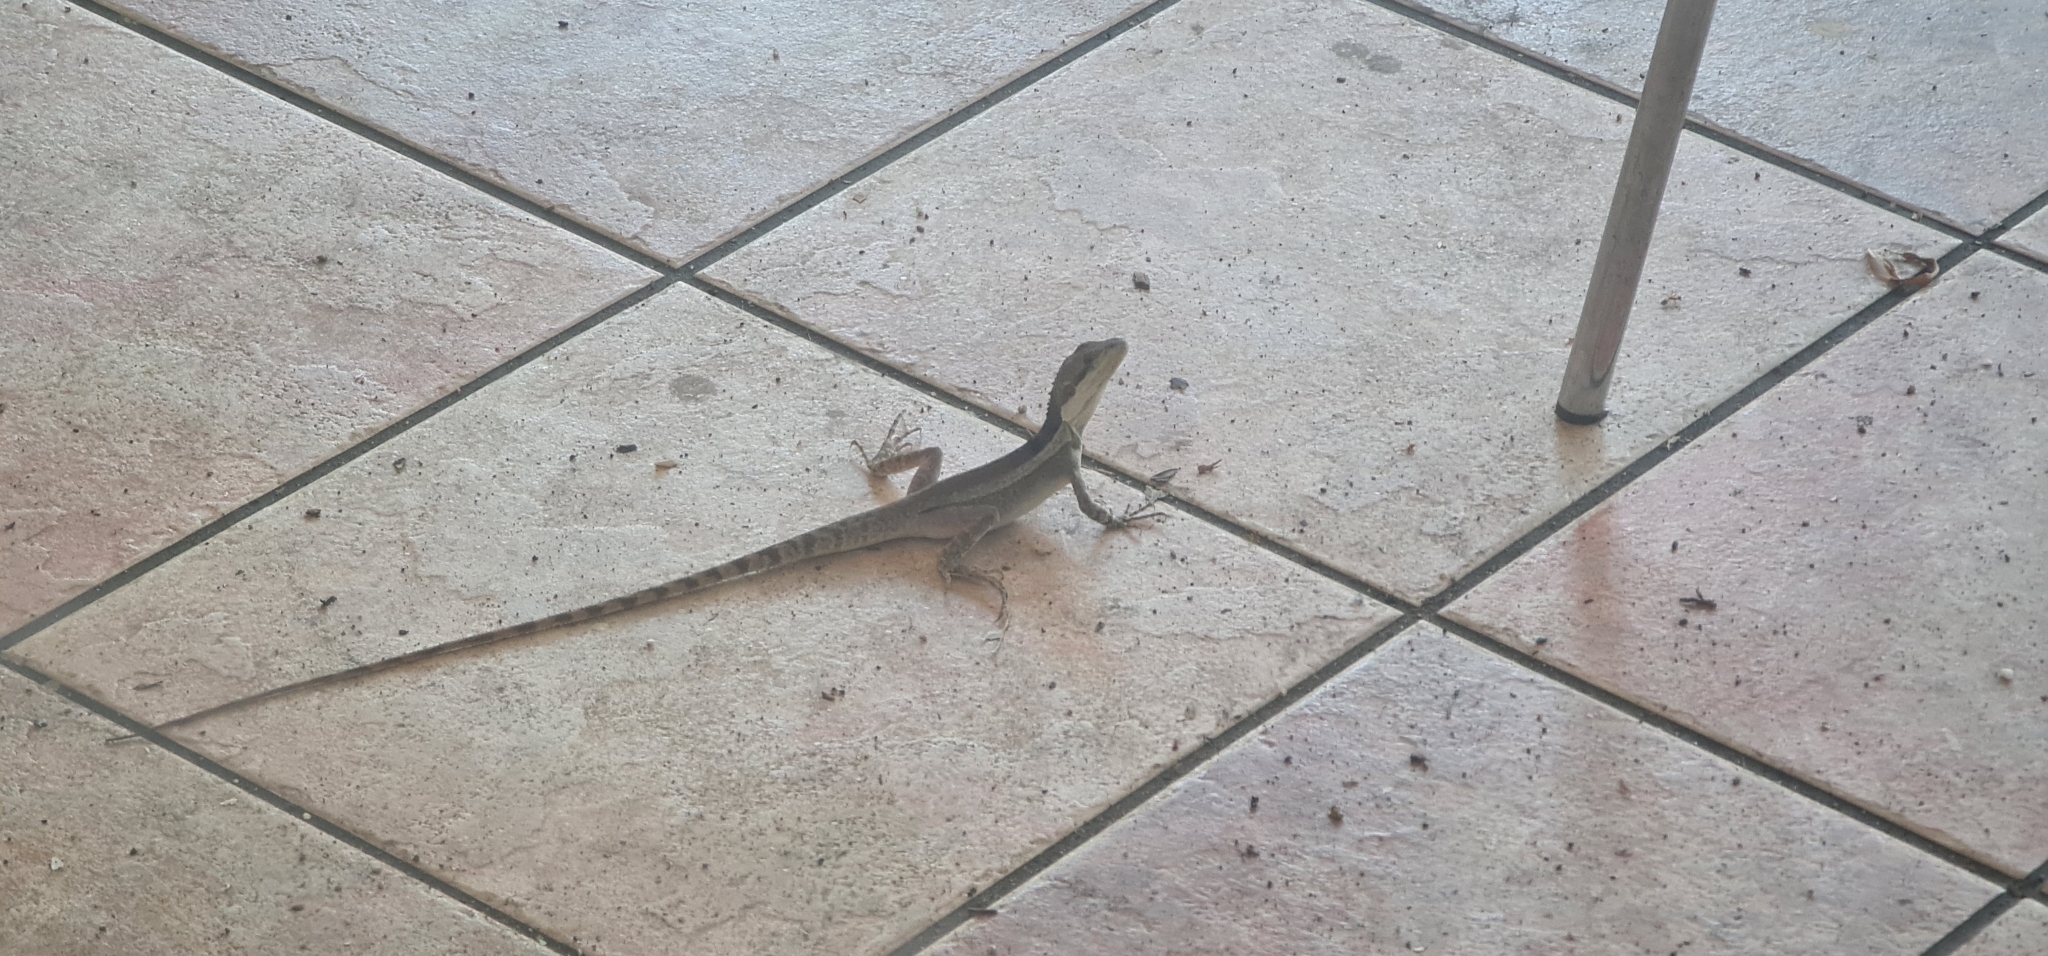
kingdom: Animalia
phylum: Chordata
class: Squamata
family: Agamidae
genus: Tropicagama
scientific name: Tropicagama temporalis
